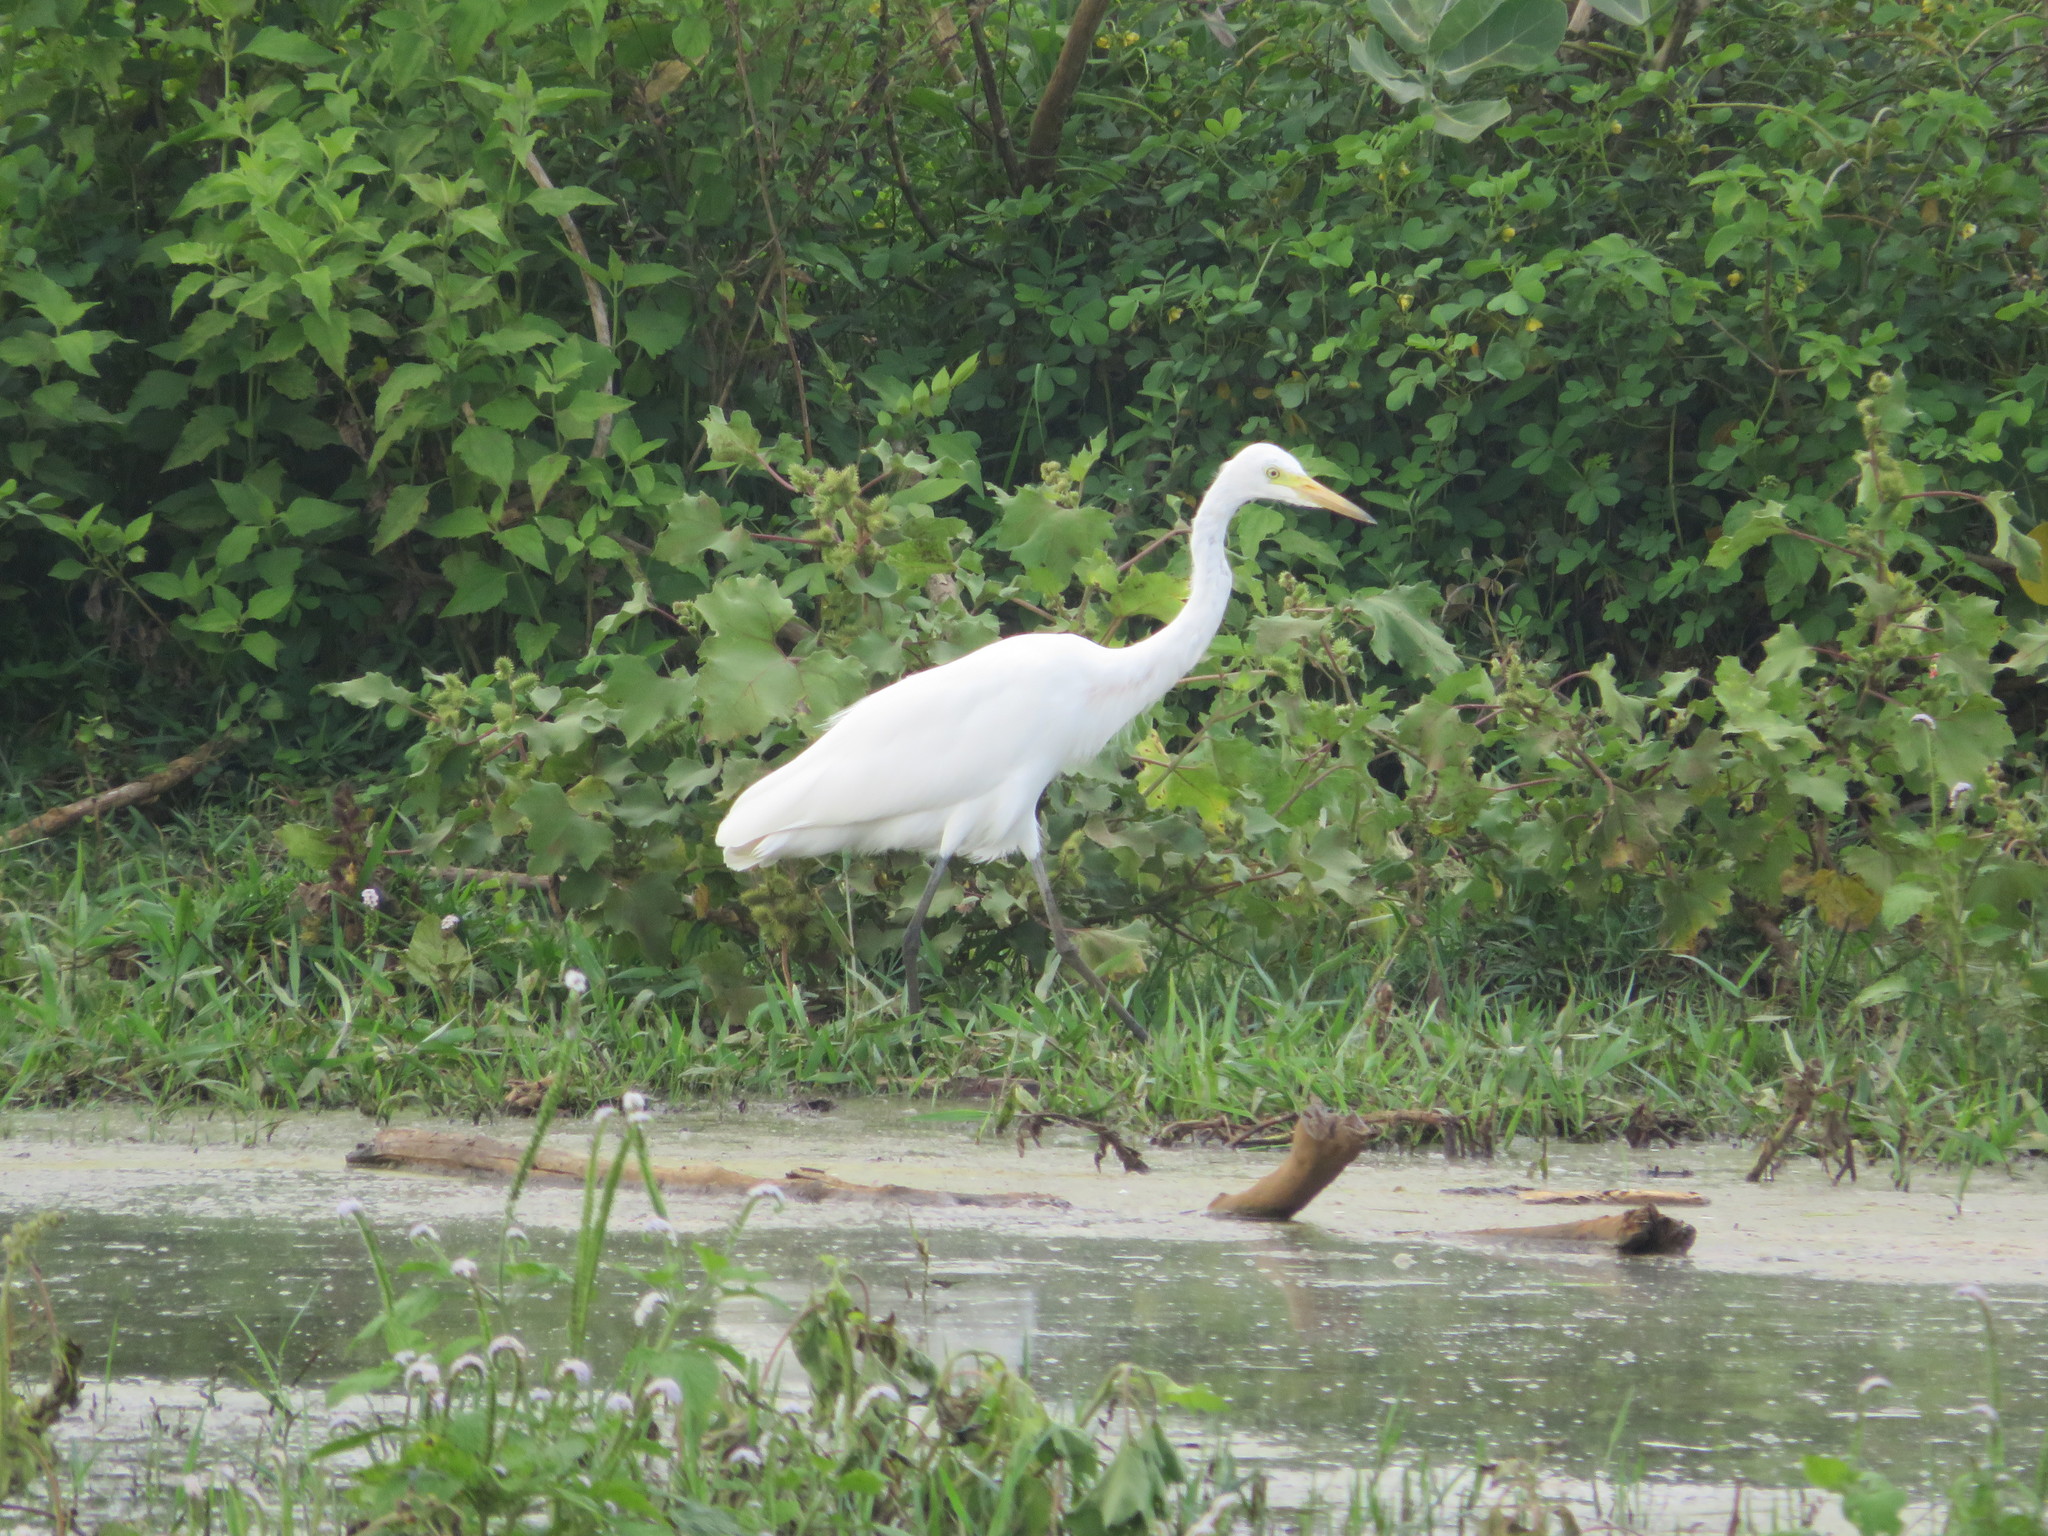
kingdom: Animalia
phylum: Chordata
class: Aves
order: Pelecaniformes
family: Ardeidae
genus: Egretta
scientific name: Egretta intermedia
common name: Intermediate egret
